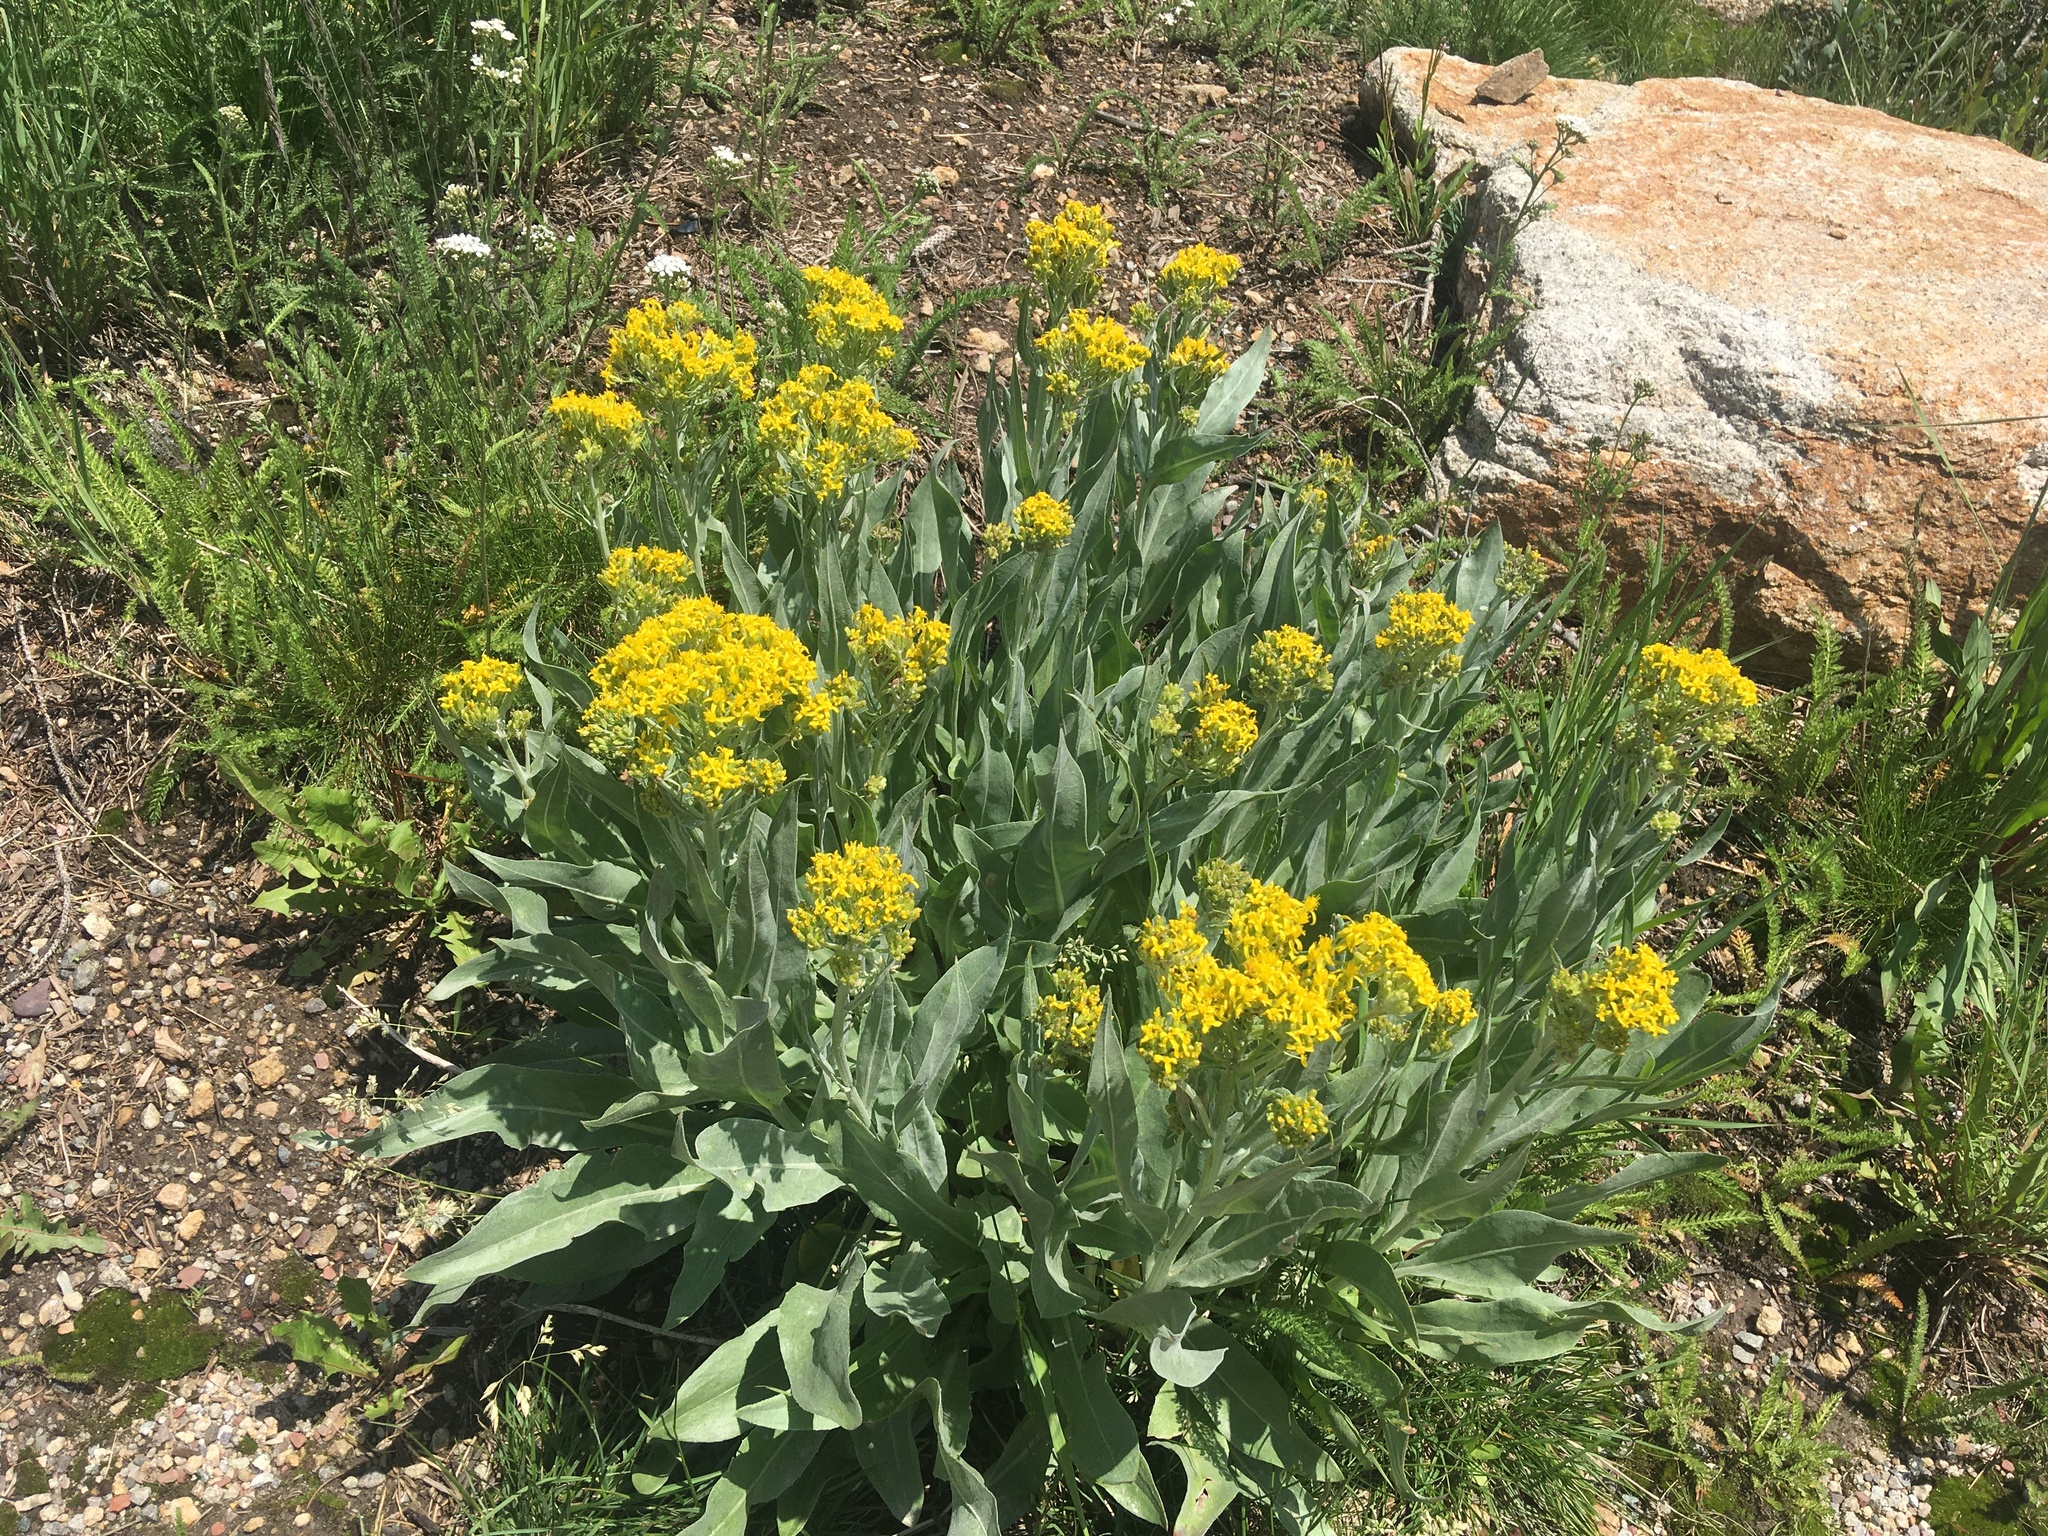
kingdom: Plantae
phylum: Tracheophyta
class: Magnoliopsida
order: Asterales
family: Asteraceae
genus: Senecio
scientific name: Senecio atratus
